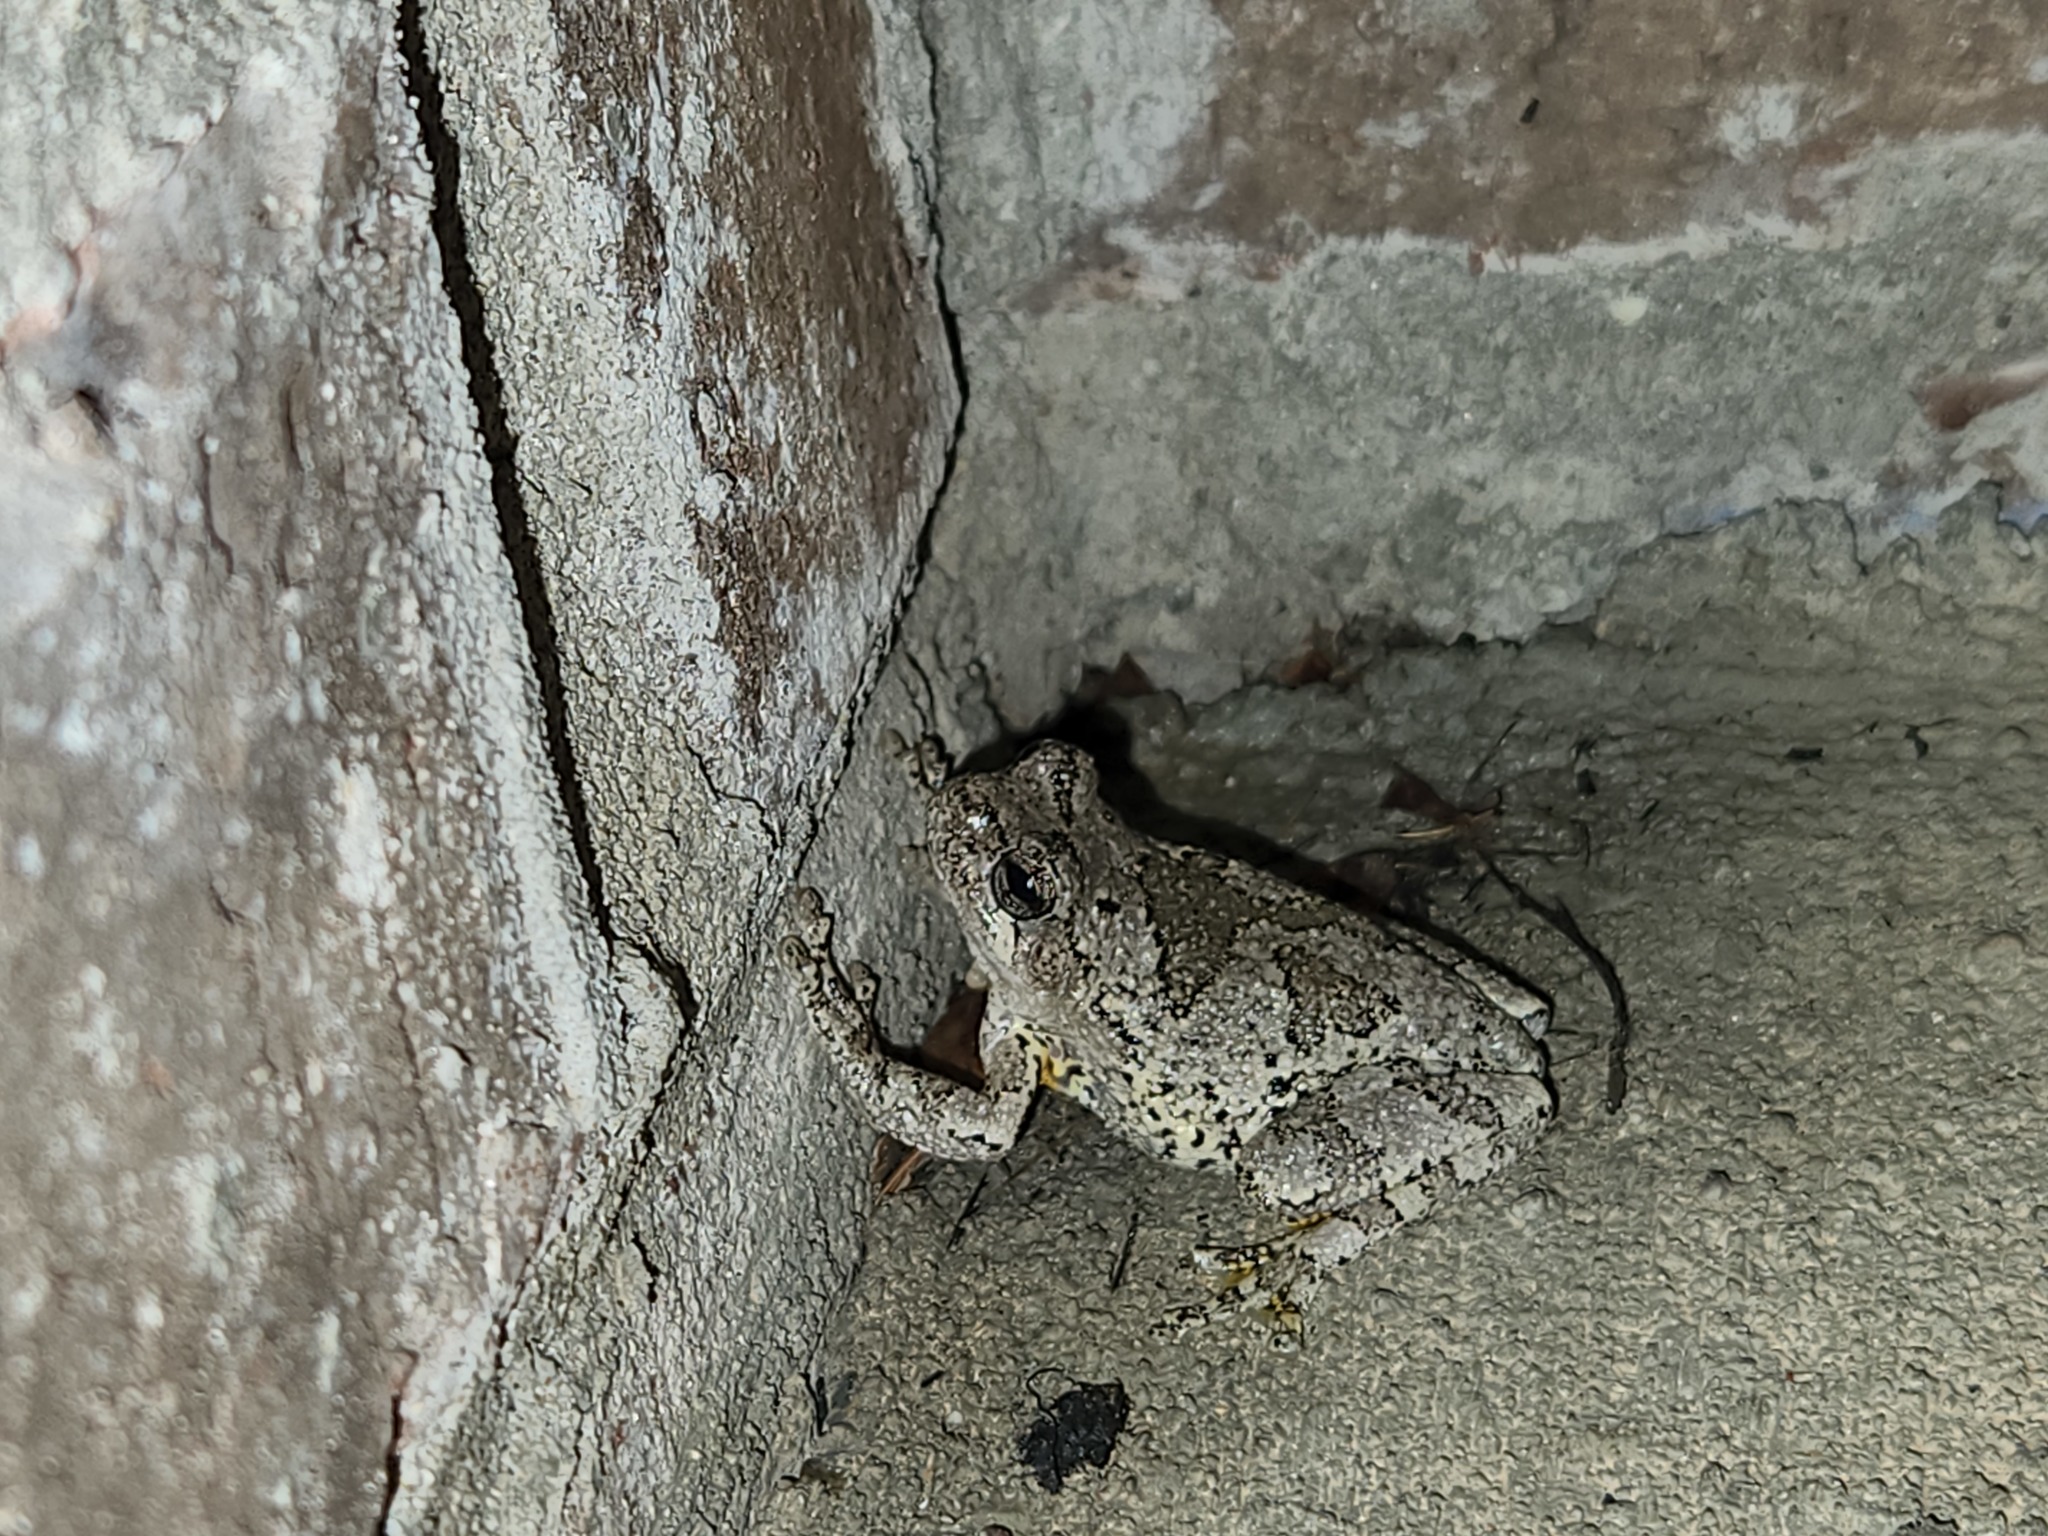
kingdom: Animalia
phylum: Chordata
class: Amphibia
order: Anura
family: Hylidae
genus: Dryophytes
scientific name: Dryophytes chrysoscelis
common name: Cope's gray treefrog
